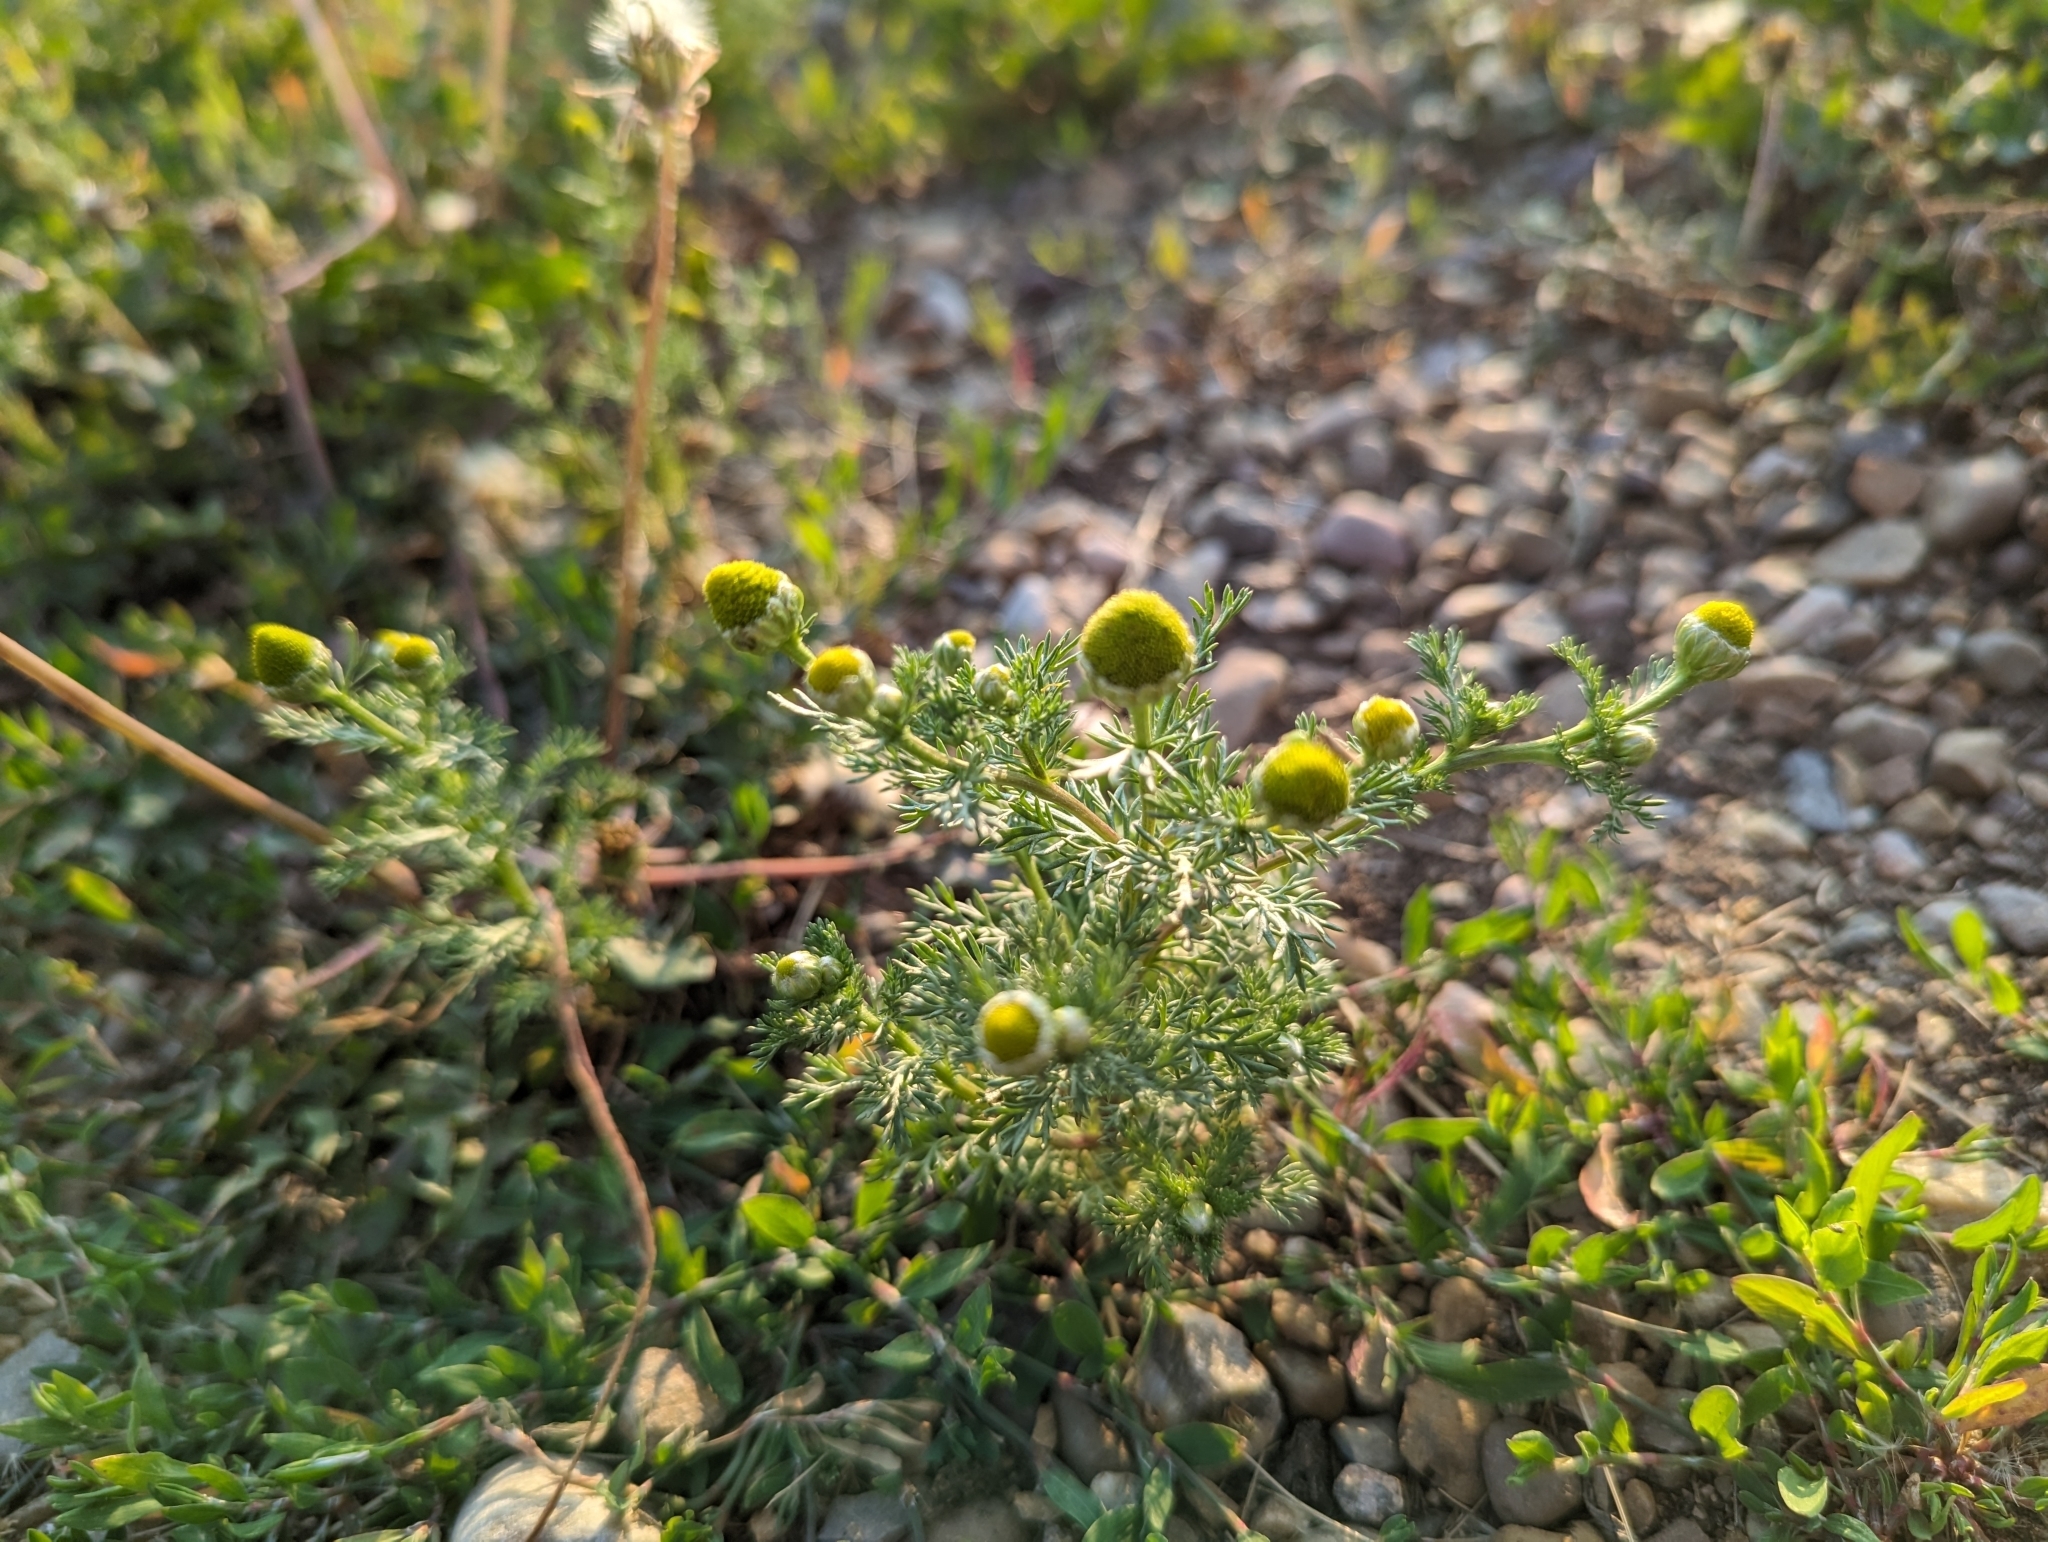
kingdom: Plantae
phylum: Tracheophyta
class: Magnoliopsida
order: Asterales
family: Asteraceae
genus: Matricaria
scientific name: Matricaria discoidea
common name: Disc mayweed
